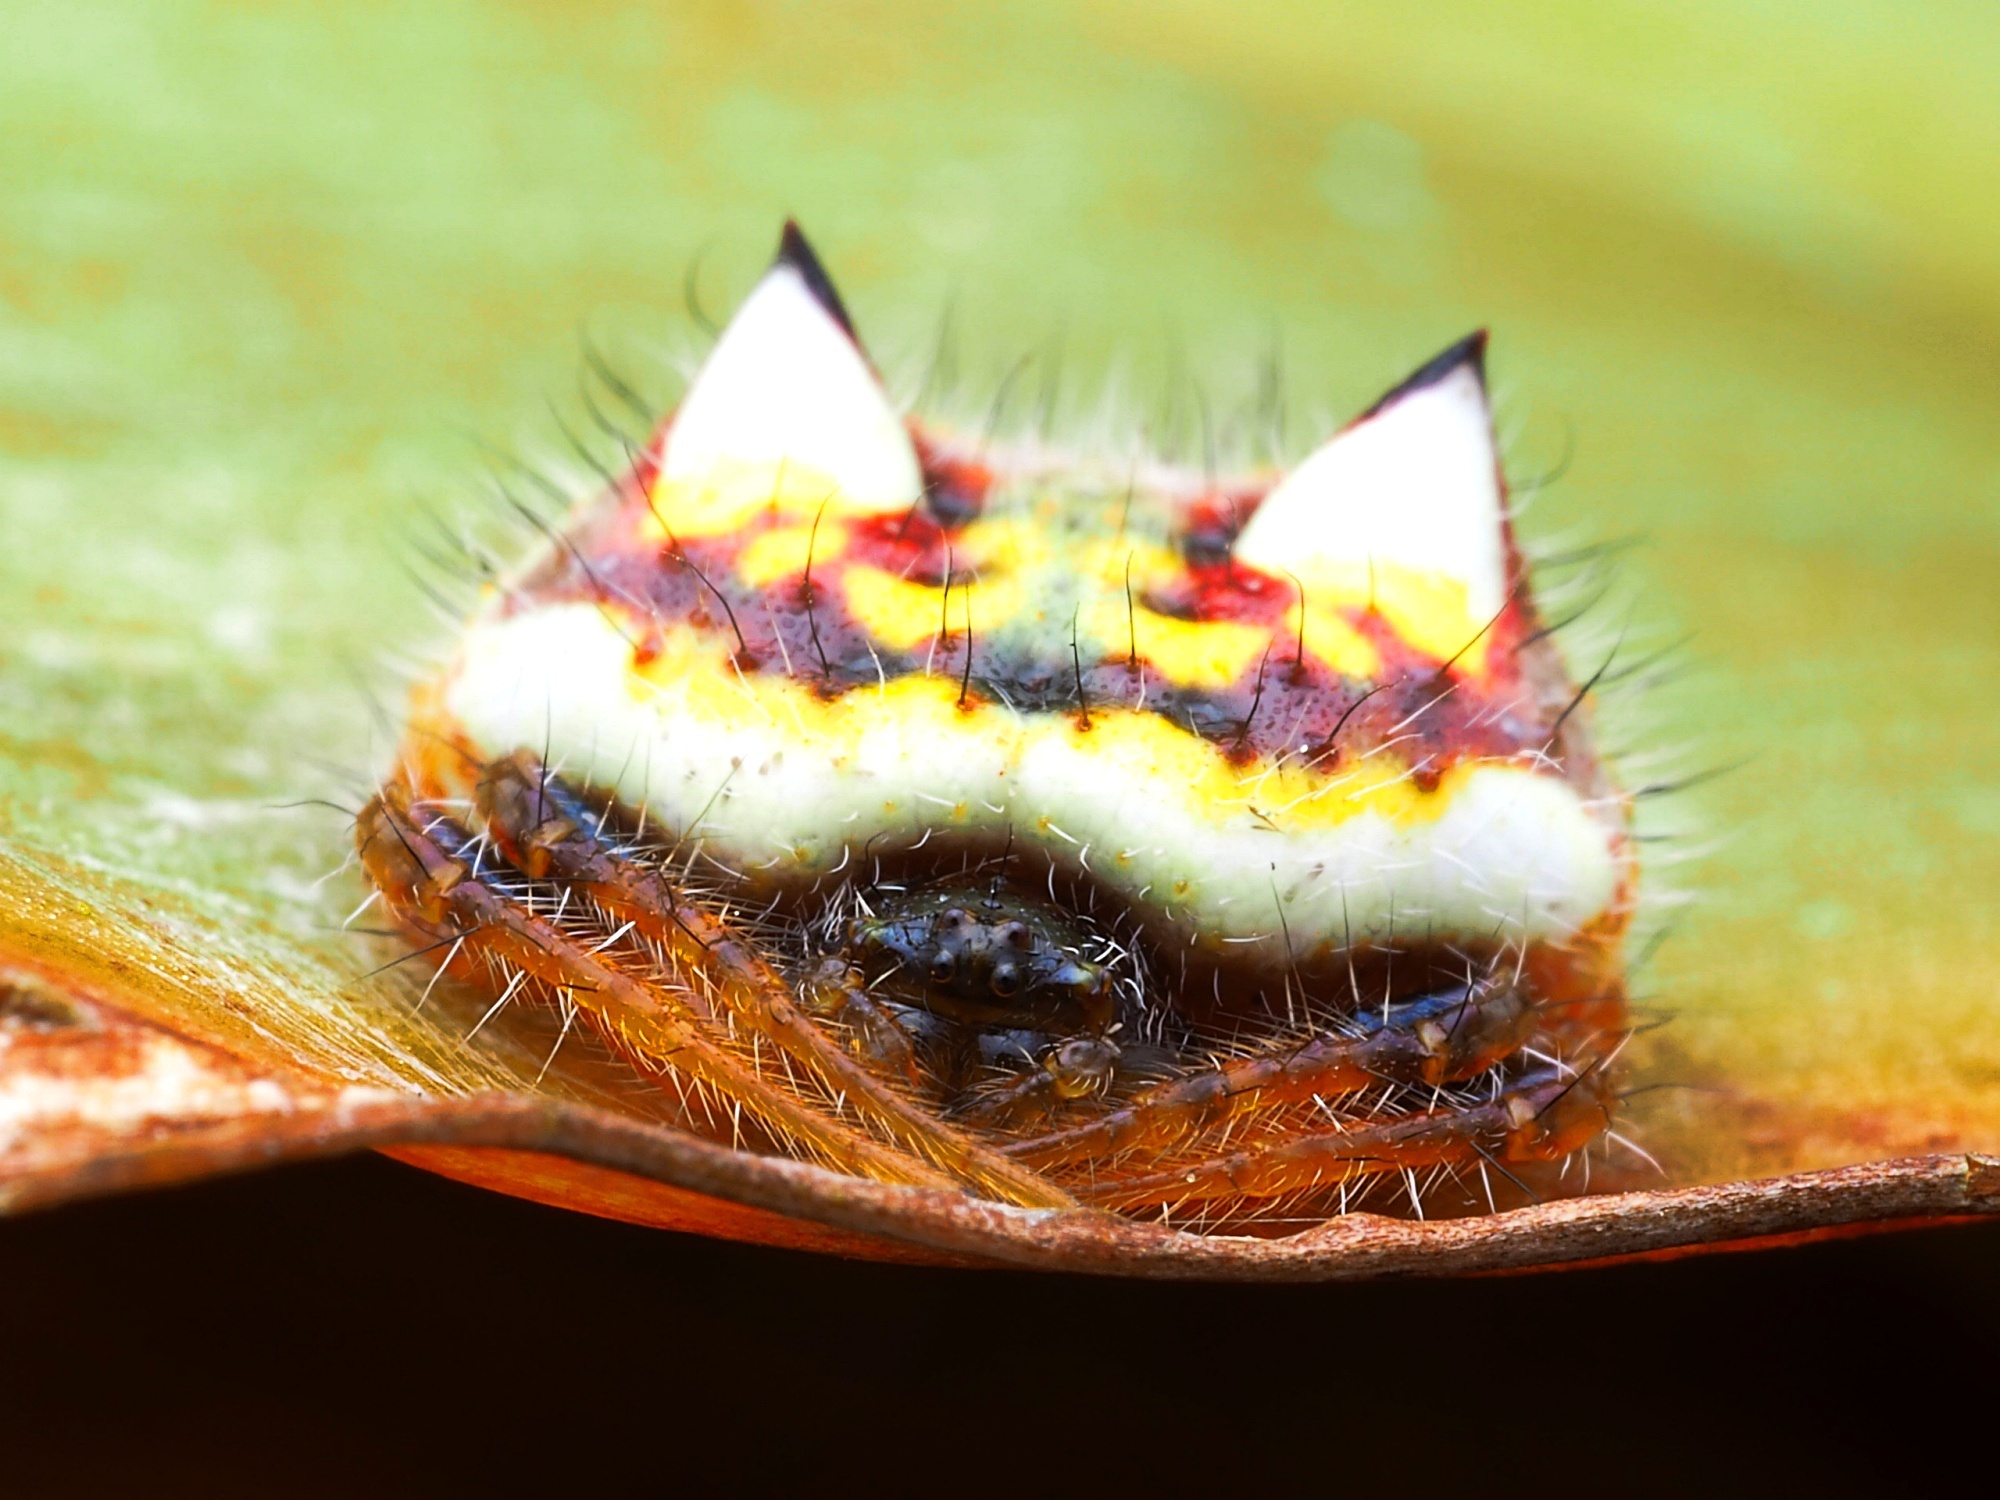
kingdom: Animalia
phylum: Arthropoda
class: Arachnida
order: Araneae
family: Araneidae
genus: Poecilopachys
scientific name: Poecilopachys australasia
